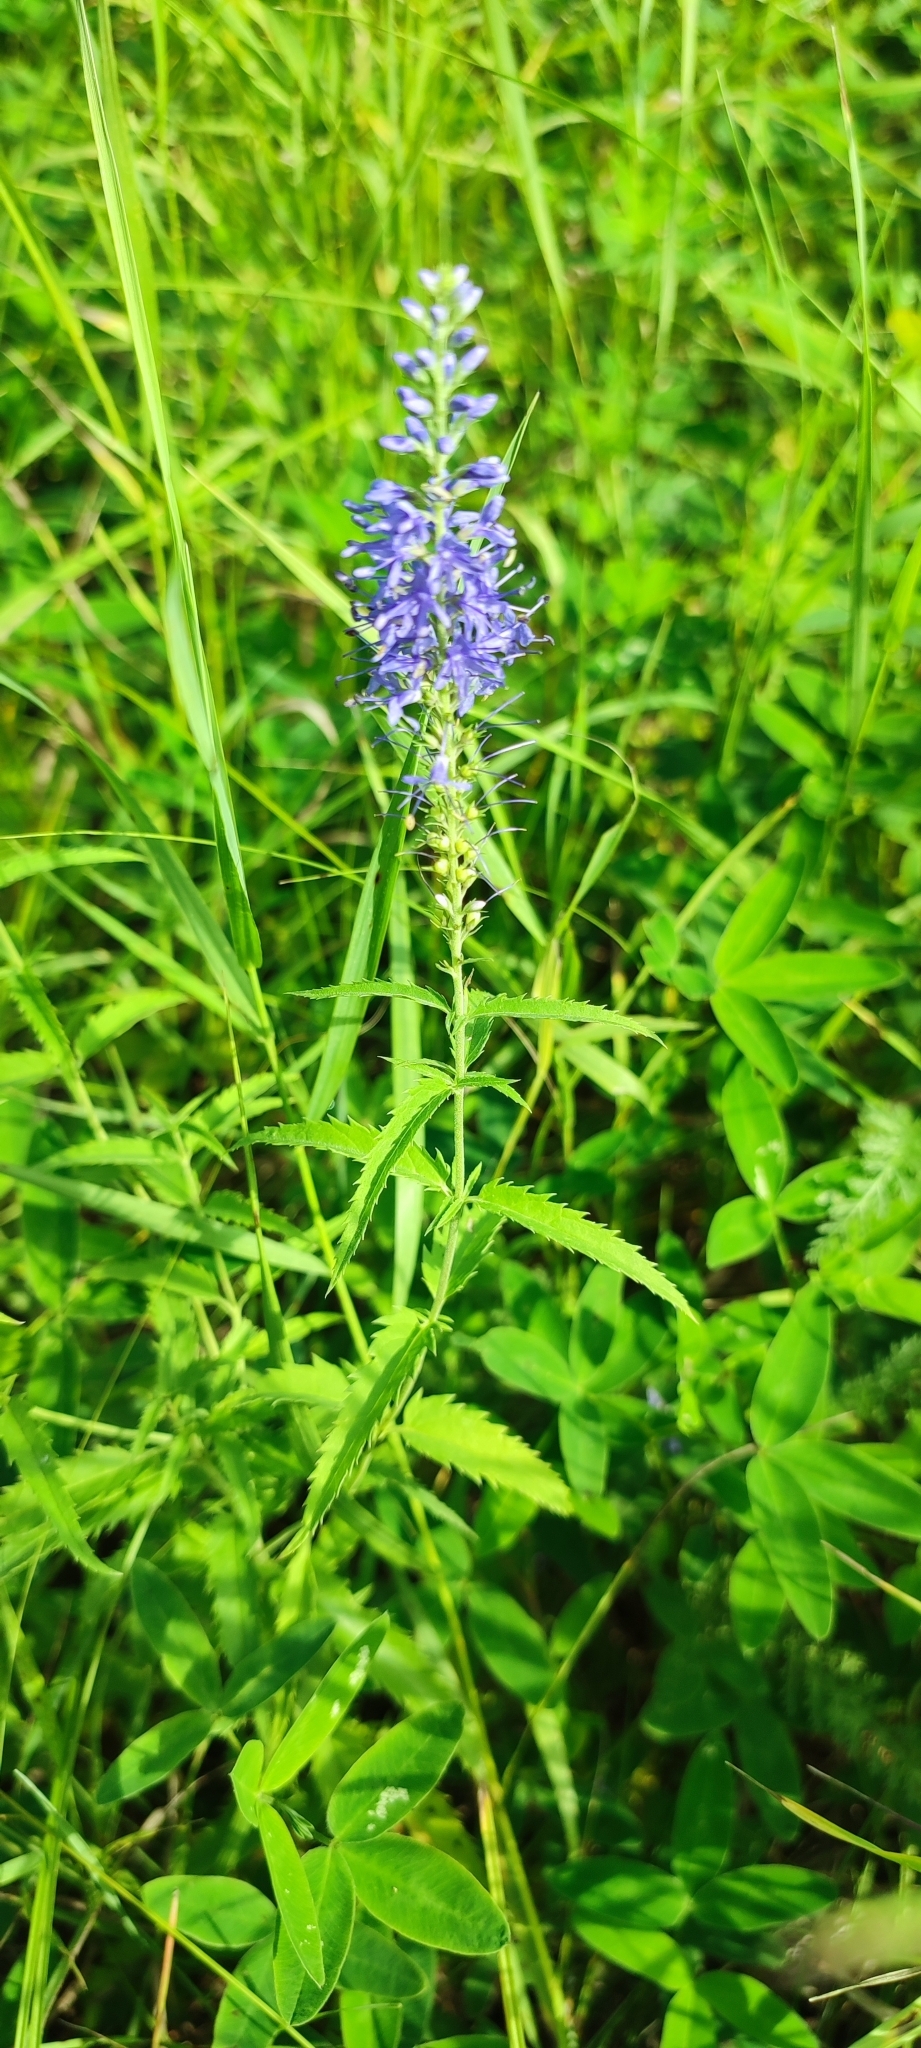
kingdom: Plantae
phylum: Tracheophyta
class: Magnoliopsida
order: Lamiales
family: Plantaginaceae
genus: Veronica
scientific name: Veronica longifolia
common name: Garden speedwell
